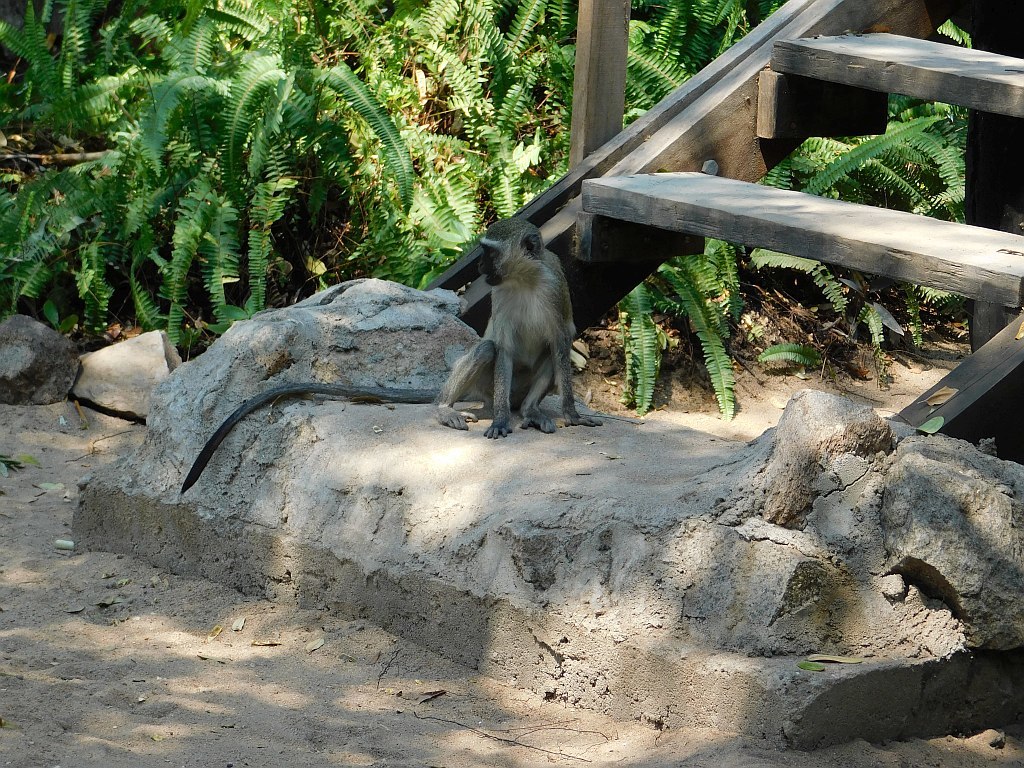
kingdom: Animalia
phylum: Chordata
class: Mammalia
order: Primates
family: Cercopithecidae
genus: Chlorocebus
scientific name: Chlorocebus pygerythrus
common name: Vervet monkey
